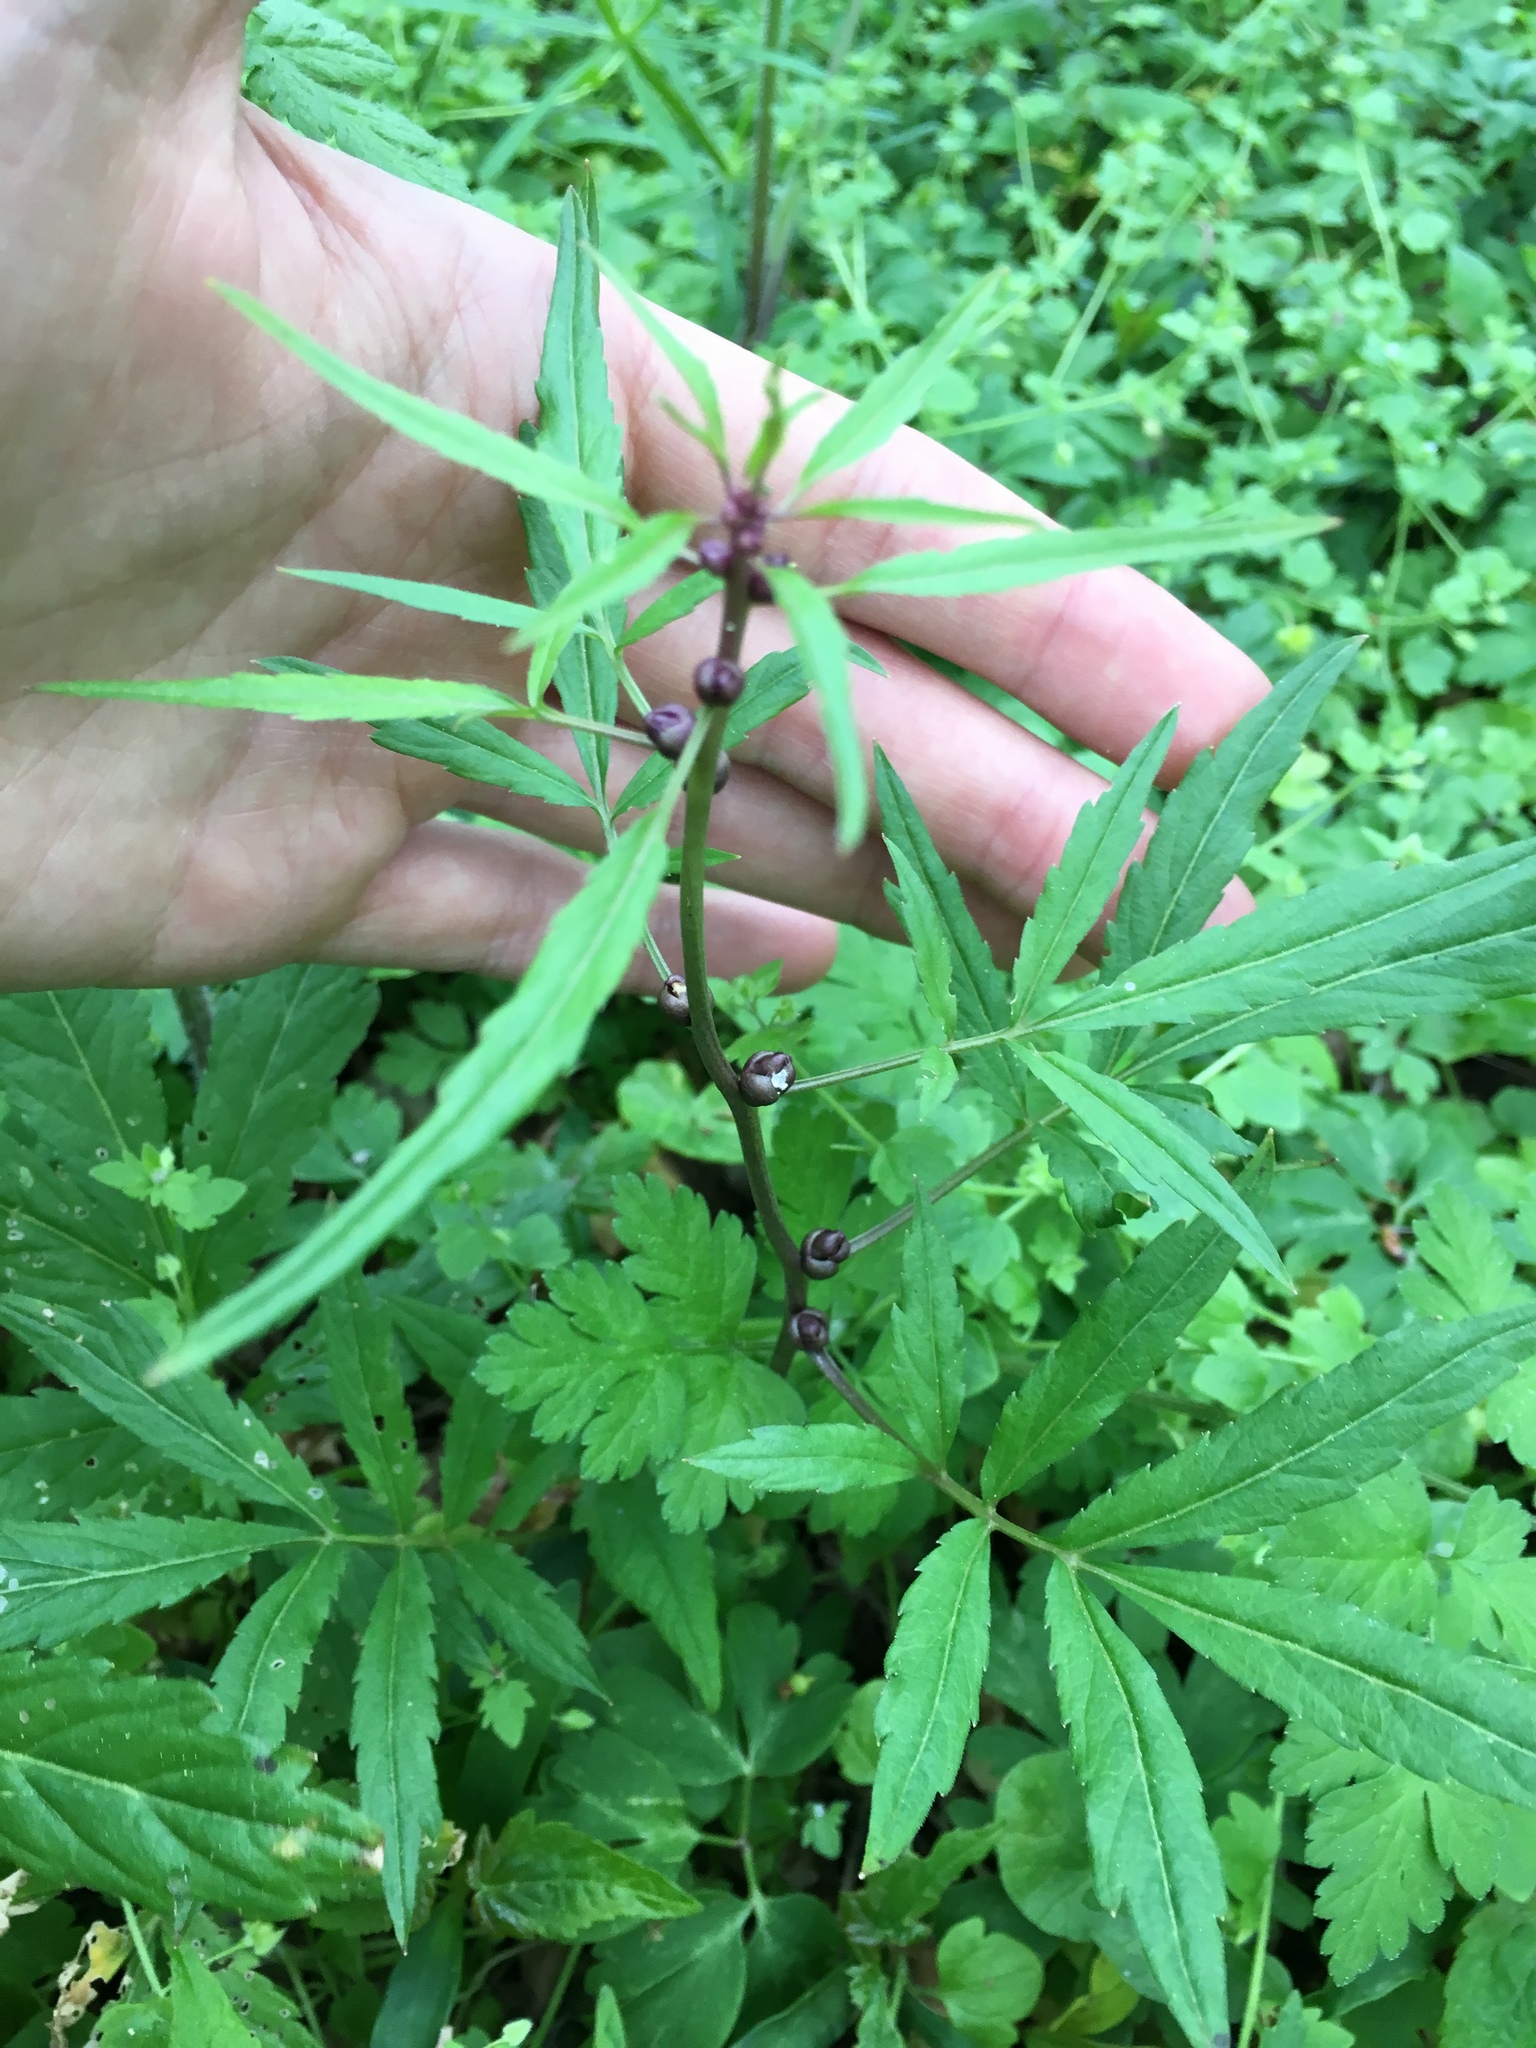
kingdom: Plantae
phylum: Tracheophyta
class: Magnoliopsida
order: Brassicales
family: Brassicaceae
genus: Cardamine
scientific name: Cardamine bulbifera
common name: Coralroot bittercress
